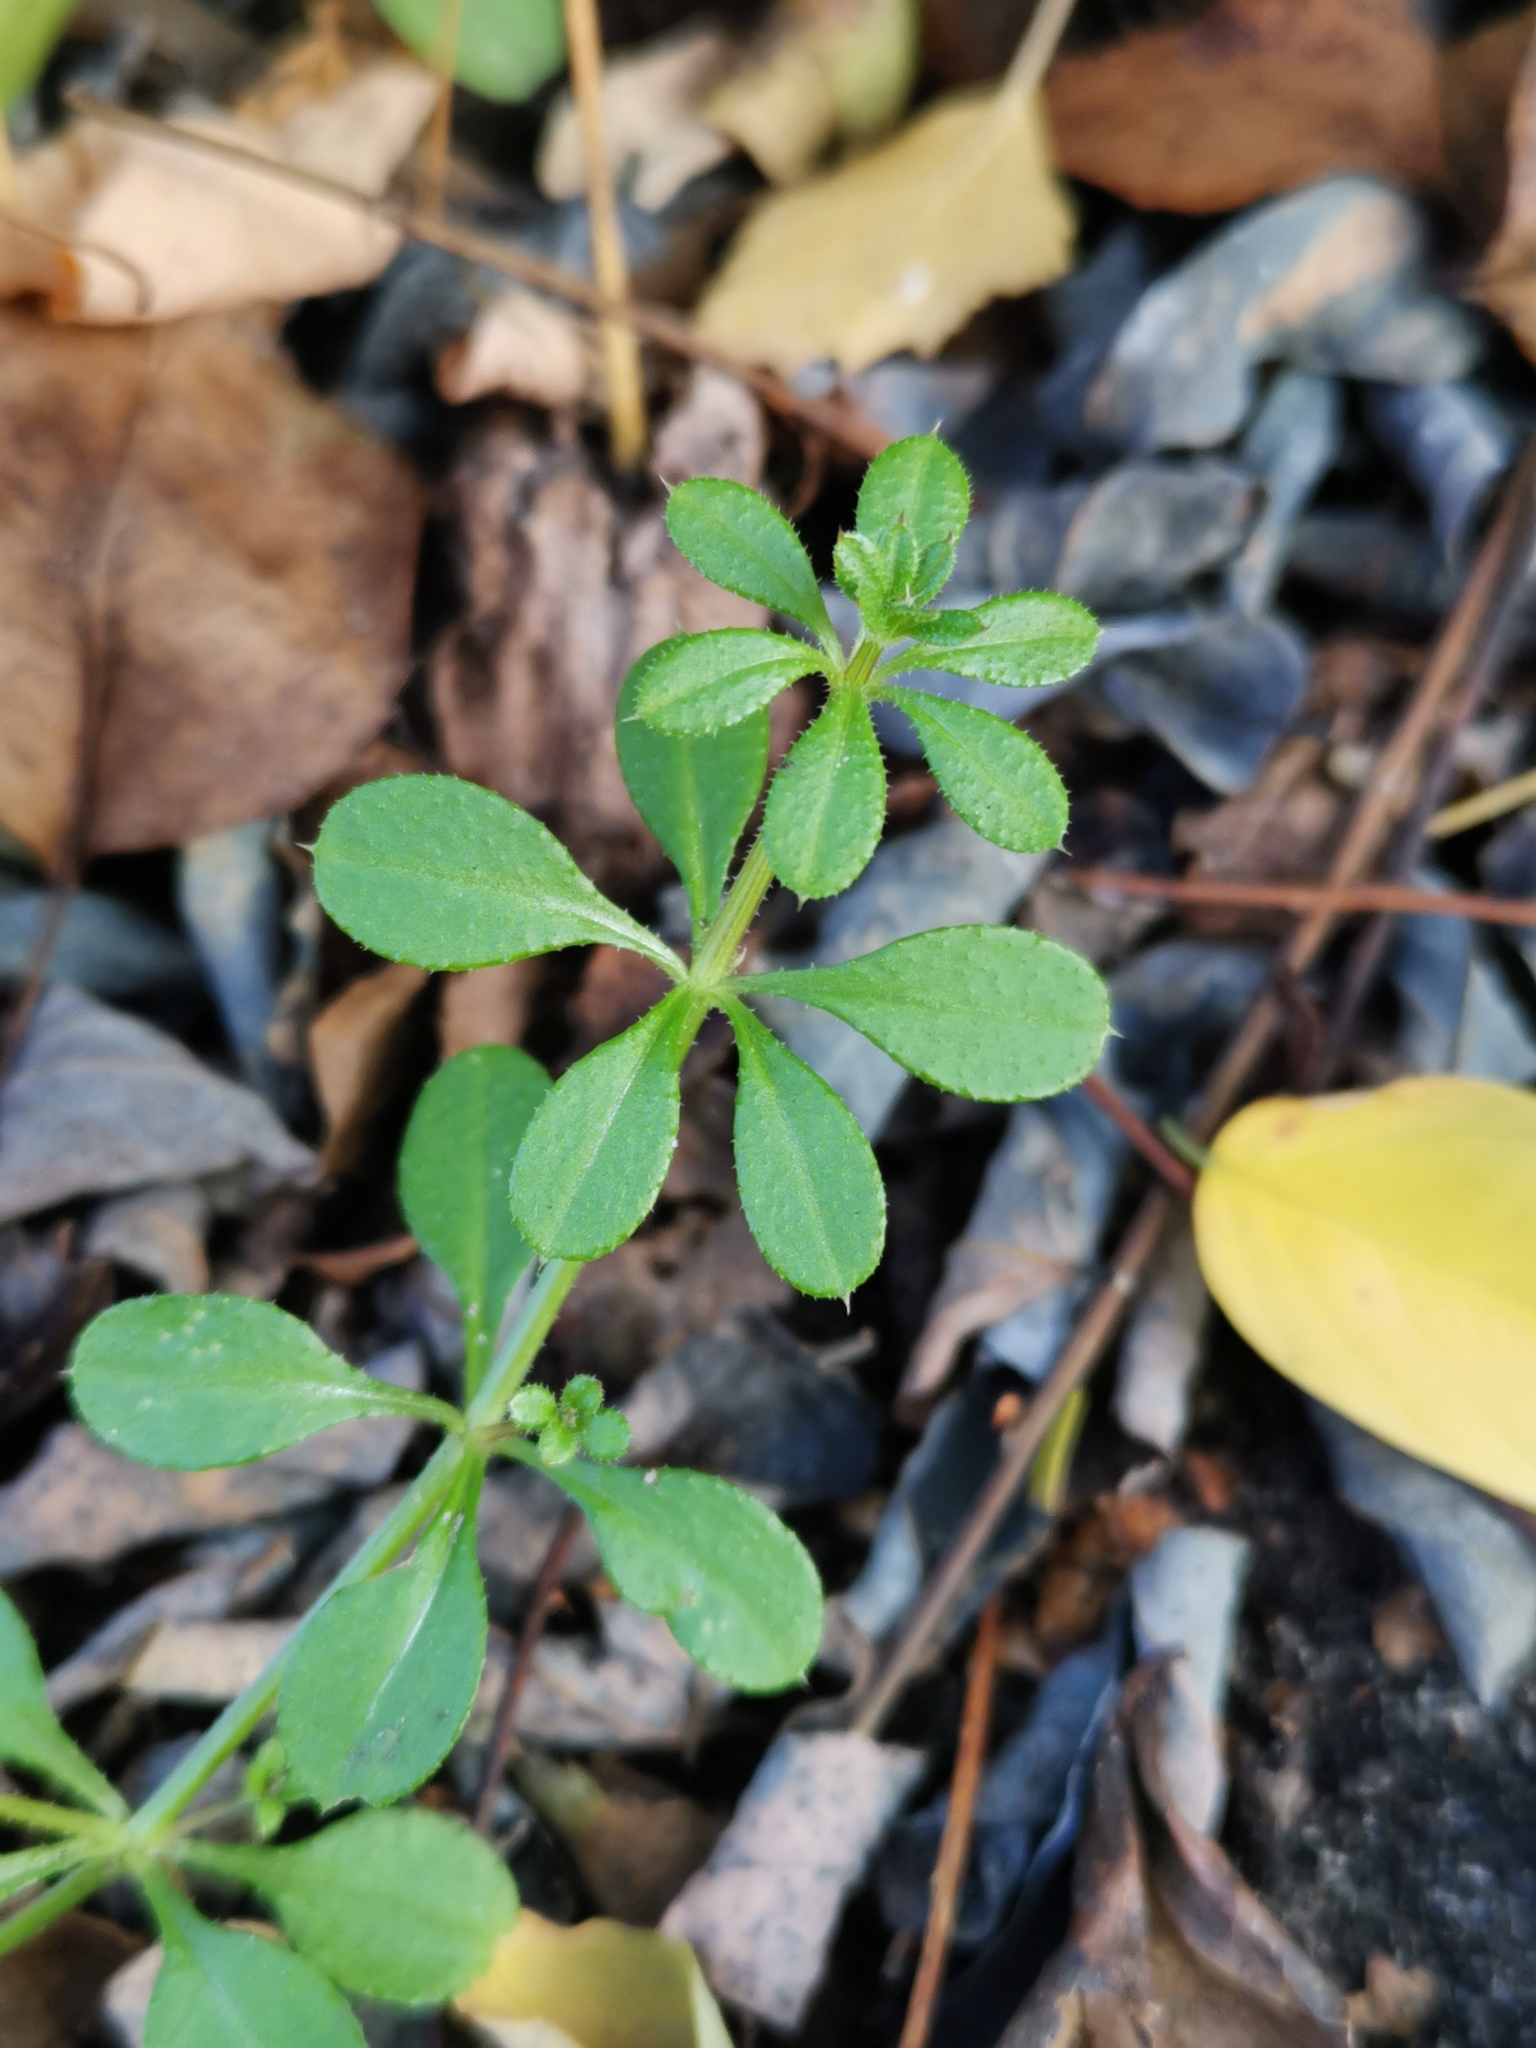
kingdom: Plantae
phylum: Tracheophyta
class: Magnoliopsida
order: Gentianales
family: Rubiaceae
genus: Galium
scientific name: Galium aparine
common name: Cleavers
